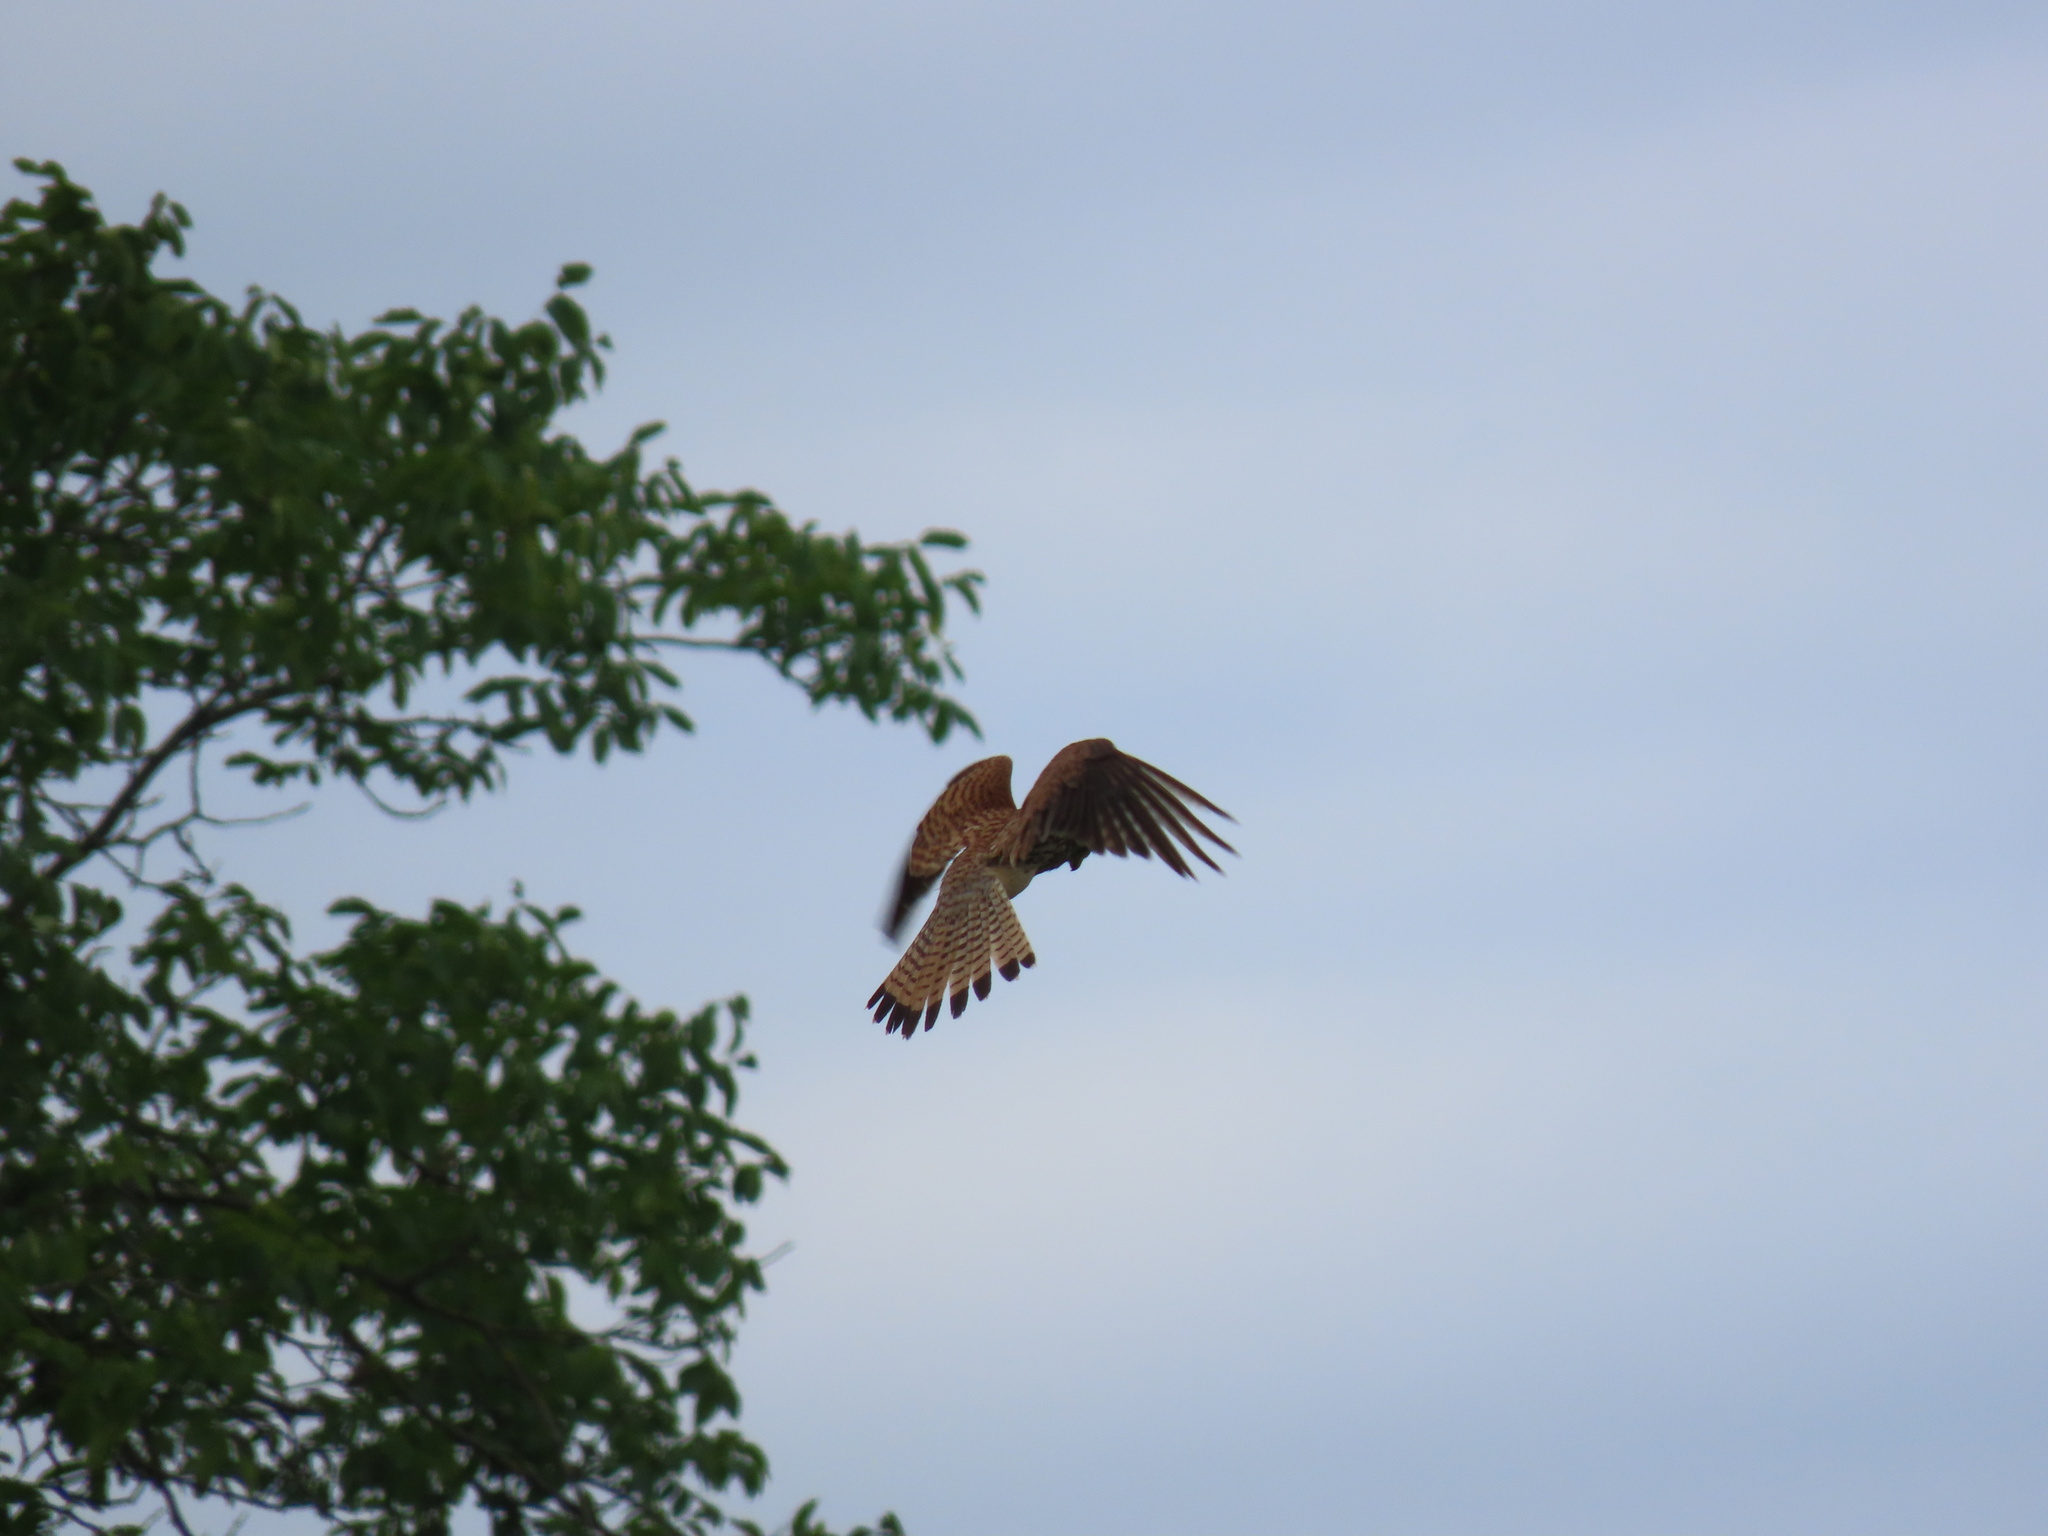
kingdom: Animalia
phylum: Chordata
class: Aves
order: Falconiformes
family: Falconidae
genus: Falco
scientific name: Falco tinnunculus
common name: Common kestrel
